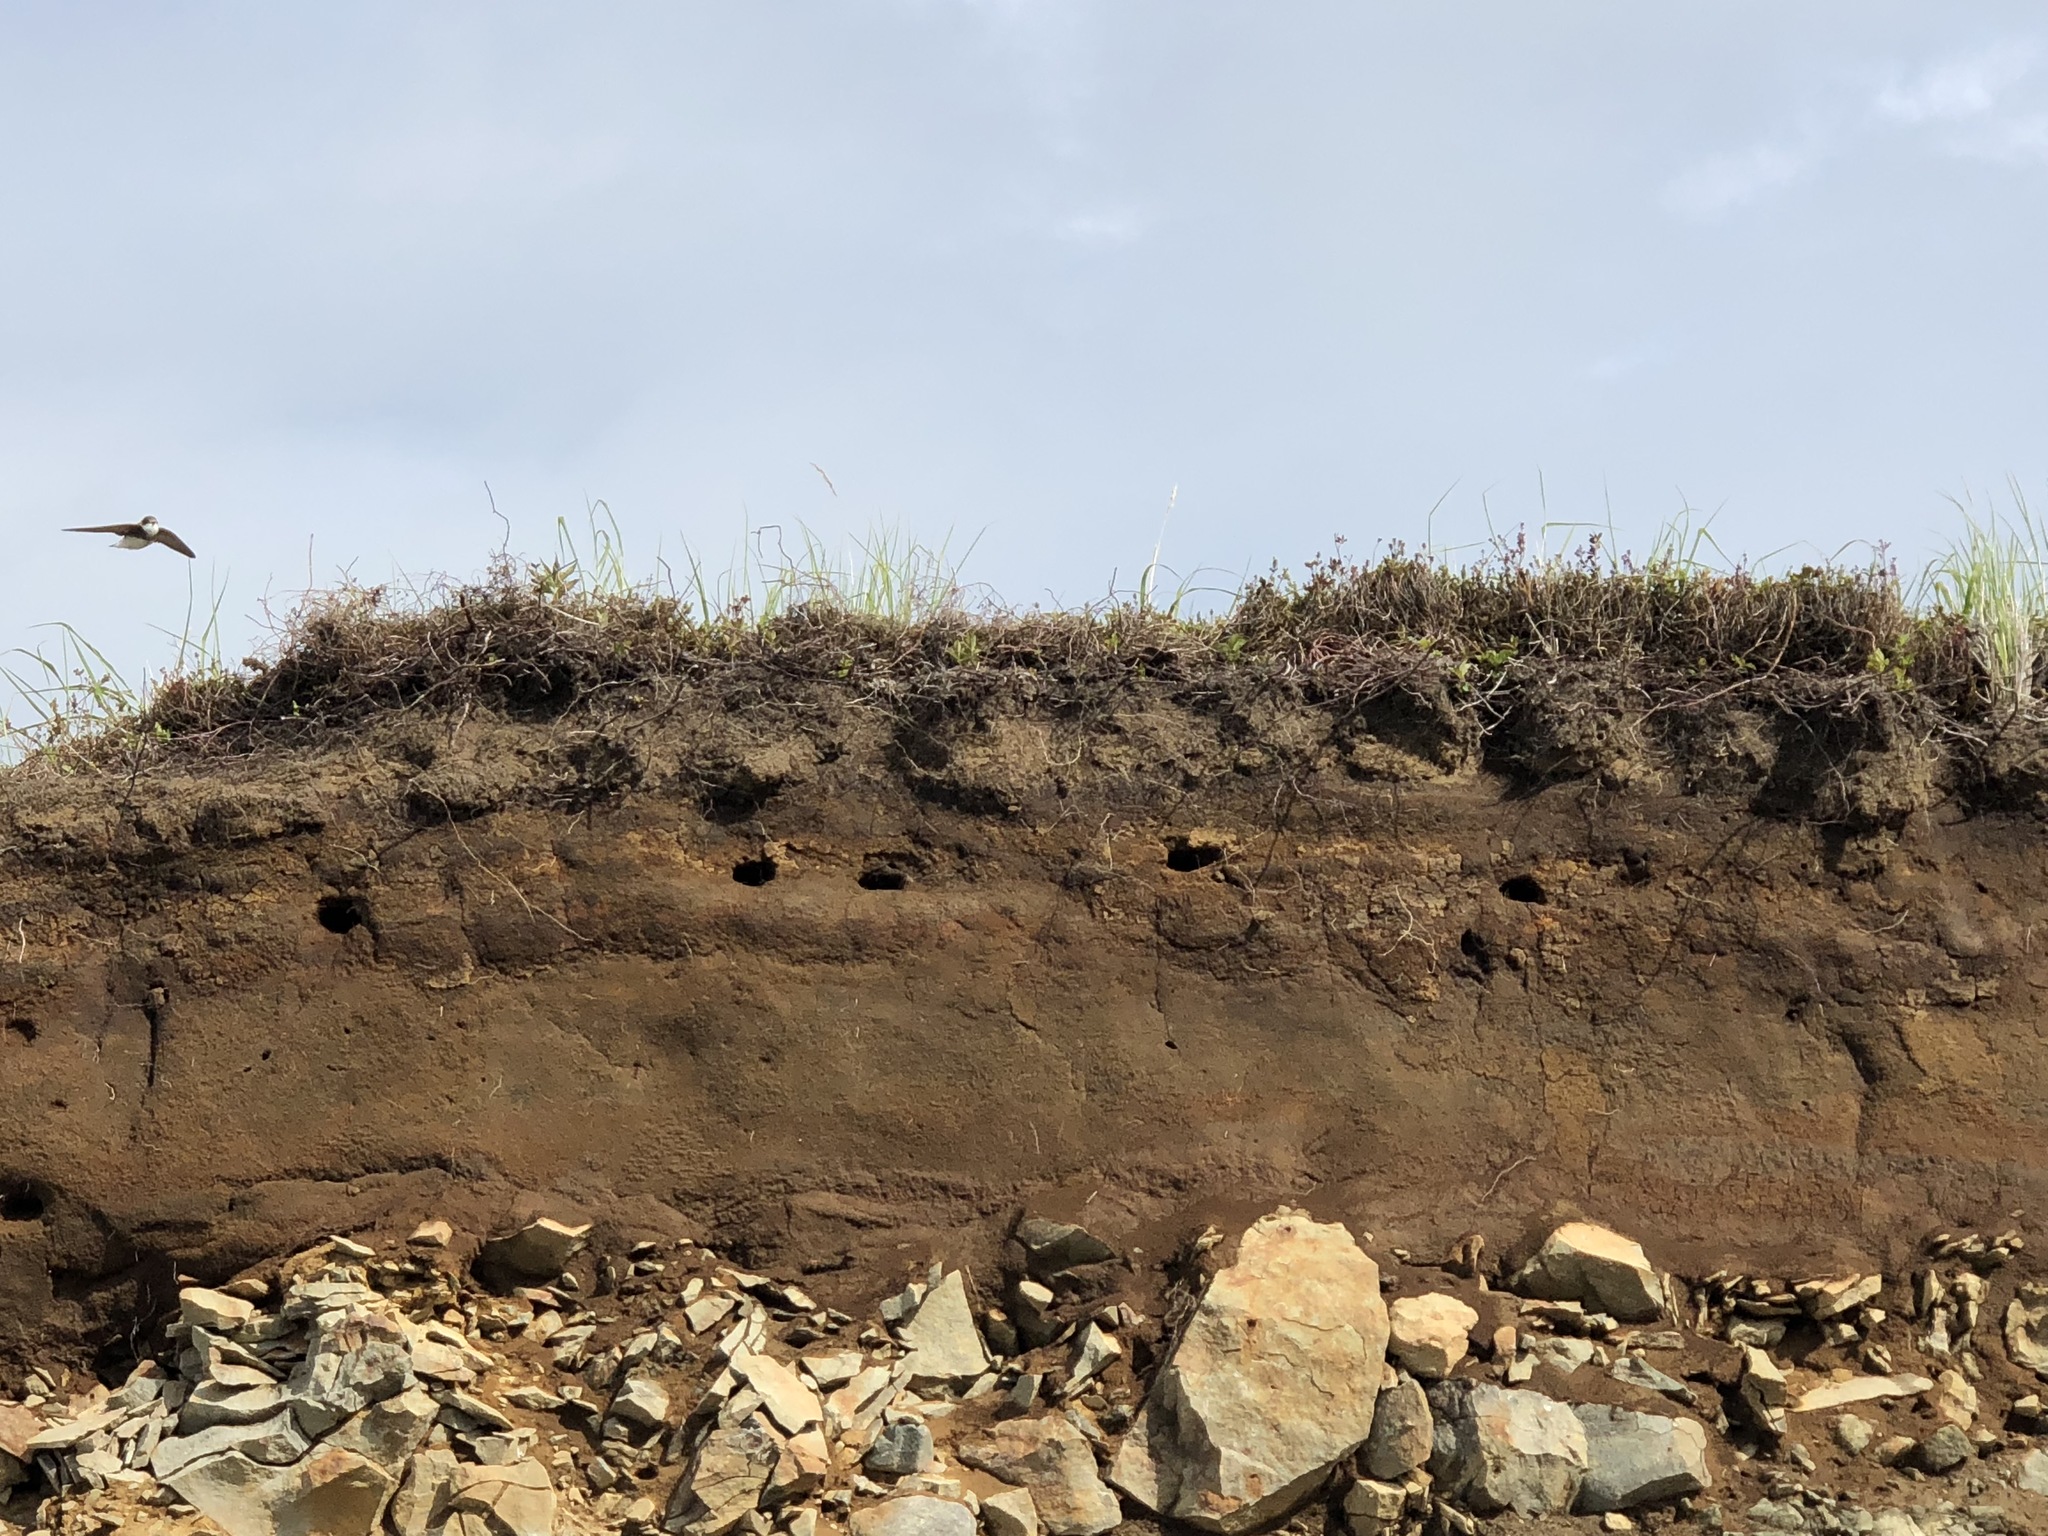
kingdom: Animalia
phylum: Chordata
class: Aves
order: Passeriformes
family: Hirundinidae
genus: Riparia
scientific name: Riparia riparia
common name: Sand martin
